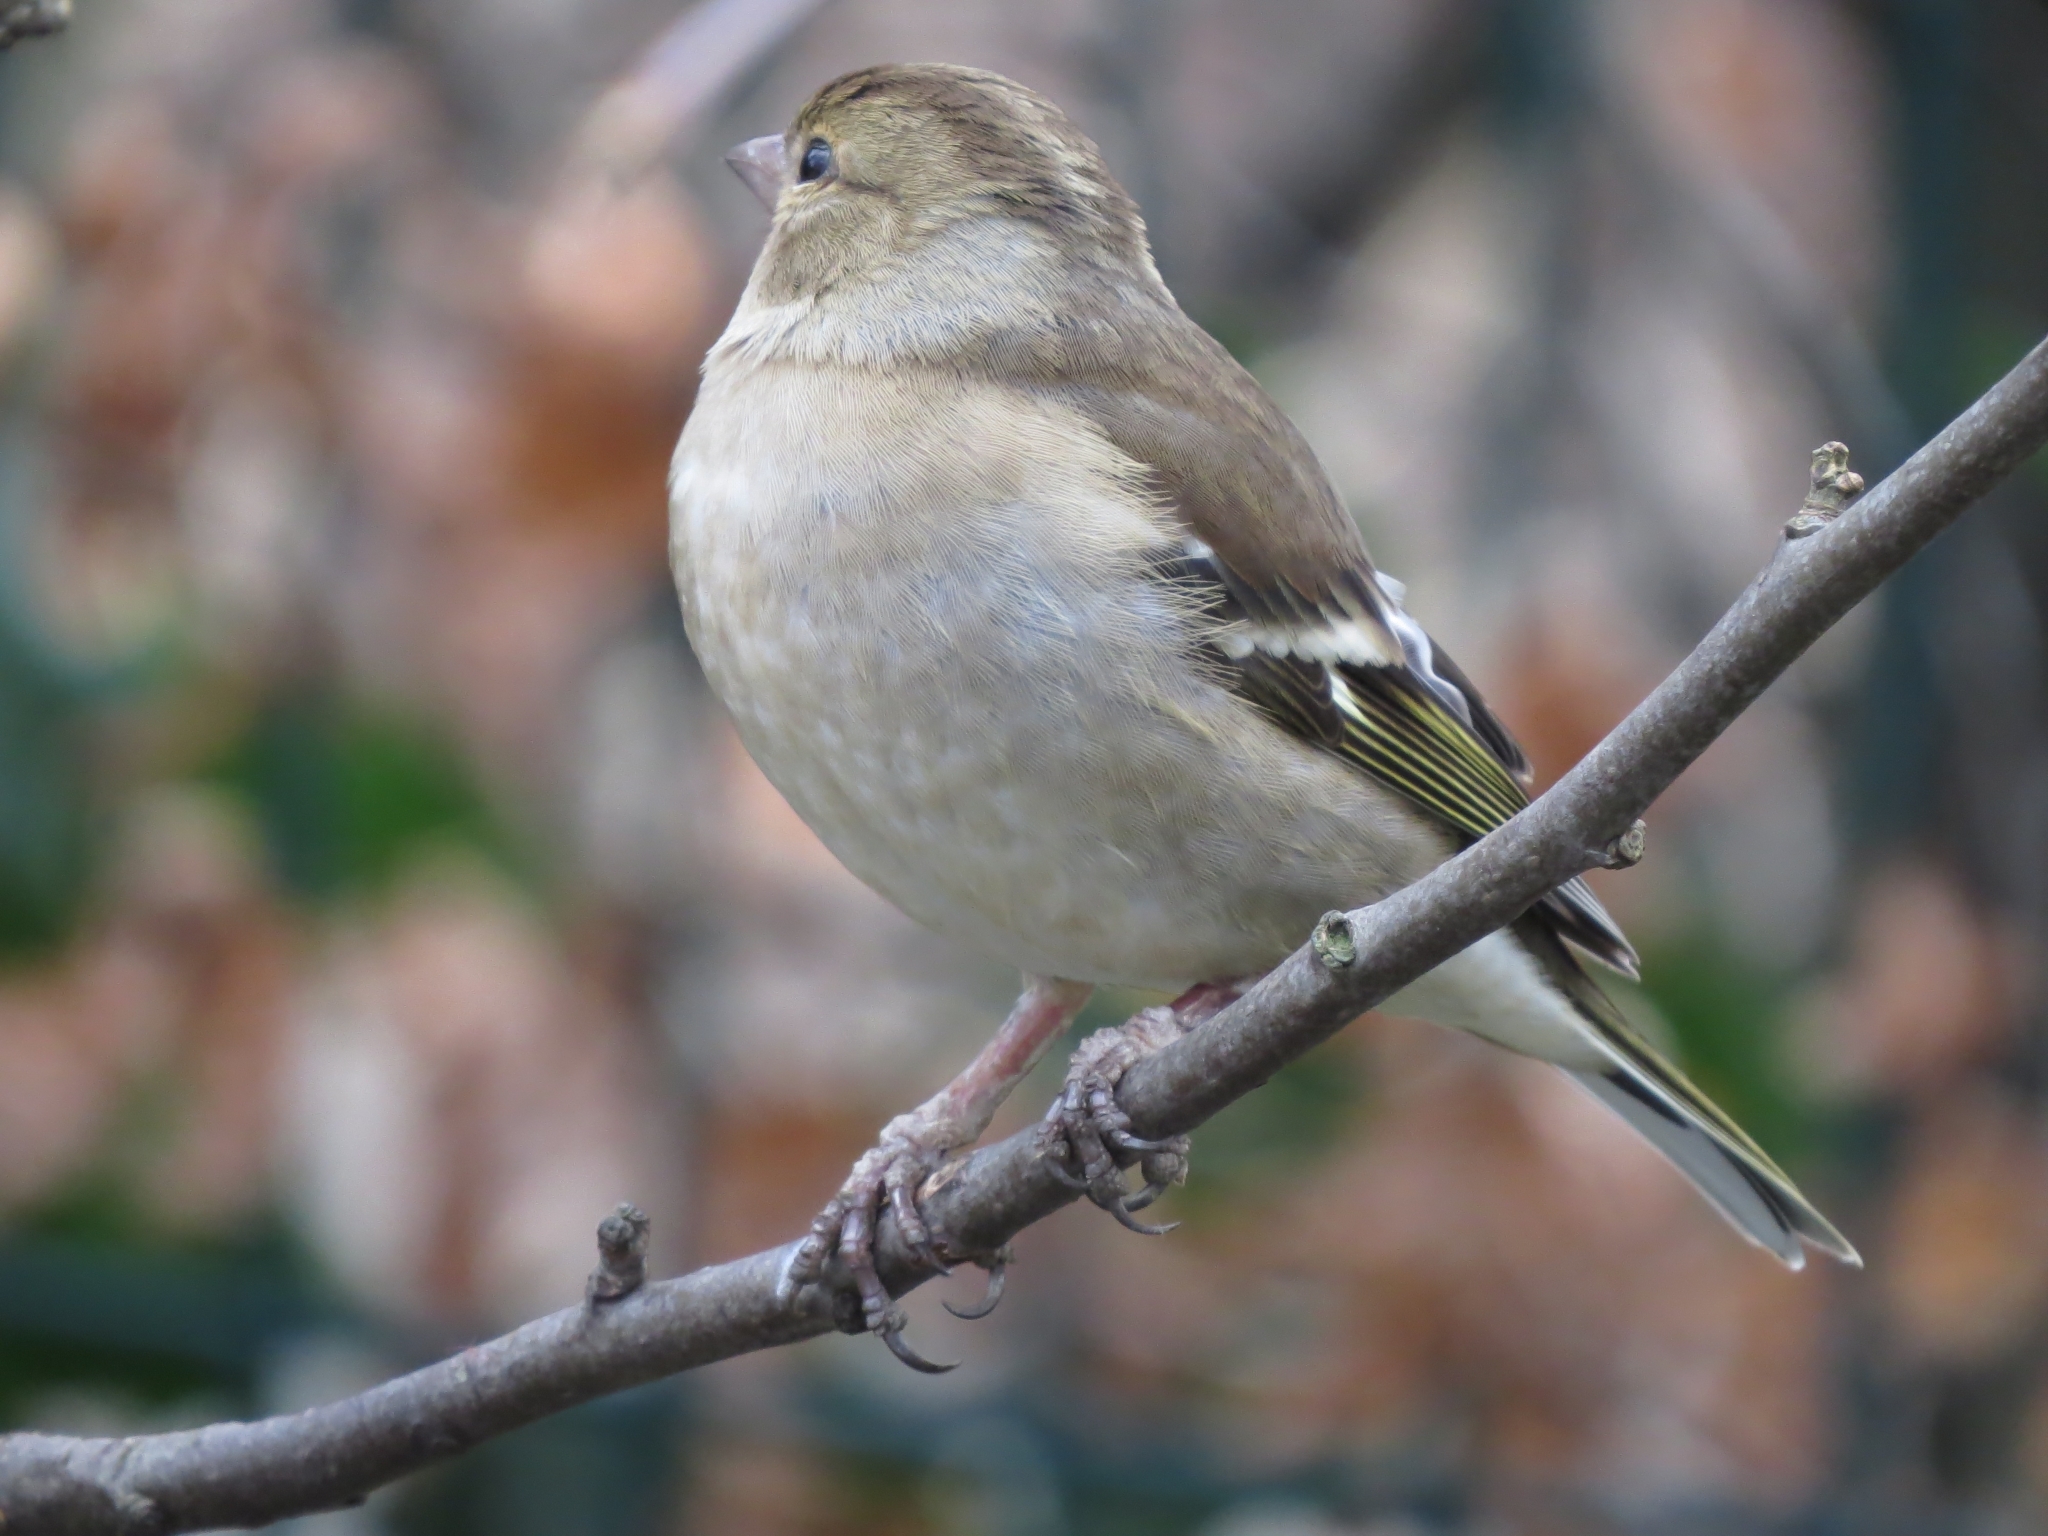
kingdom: Animalia
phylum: Chordata
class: Aves
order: Passeriformes
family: Fringillidae
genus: Fringilla
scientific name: Fringilla coelebs
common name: Common chaffinch
